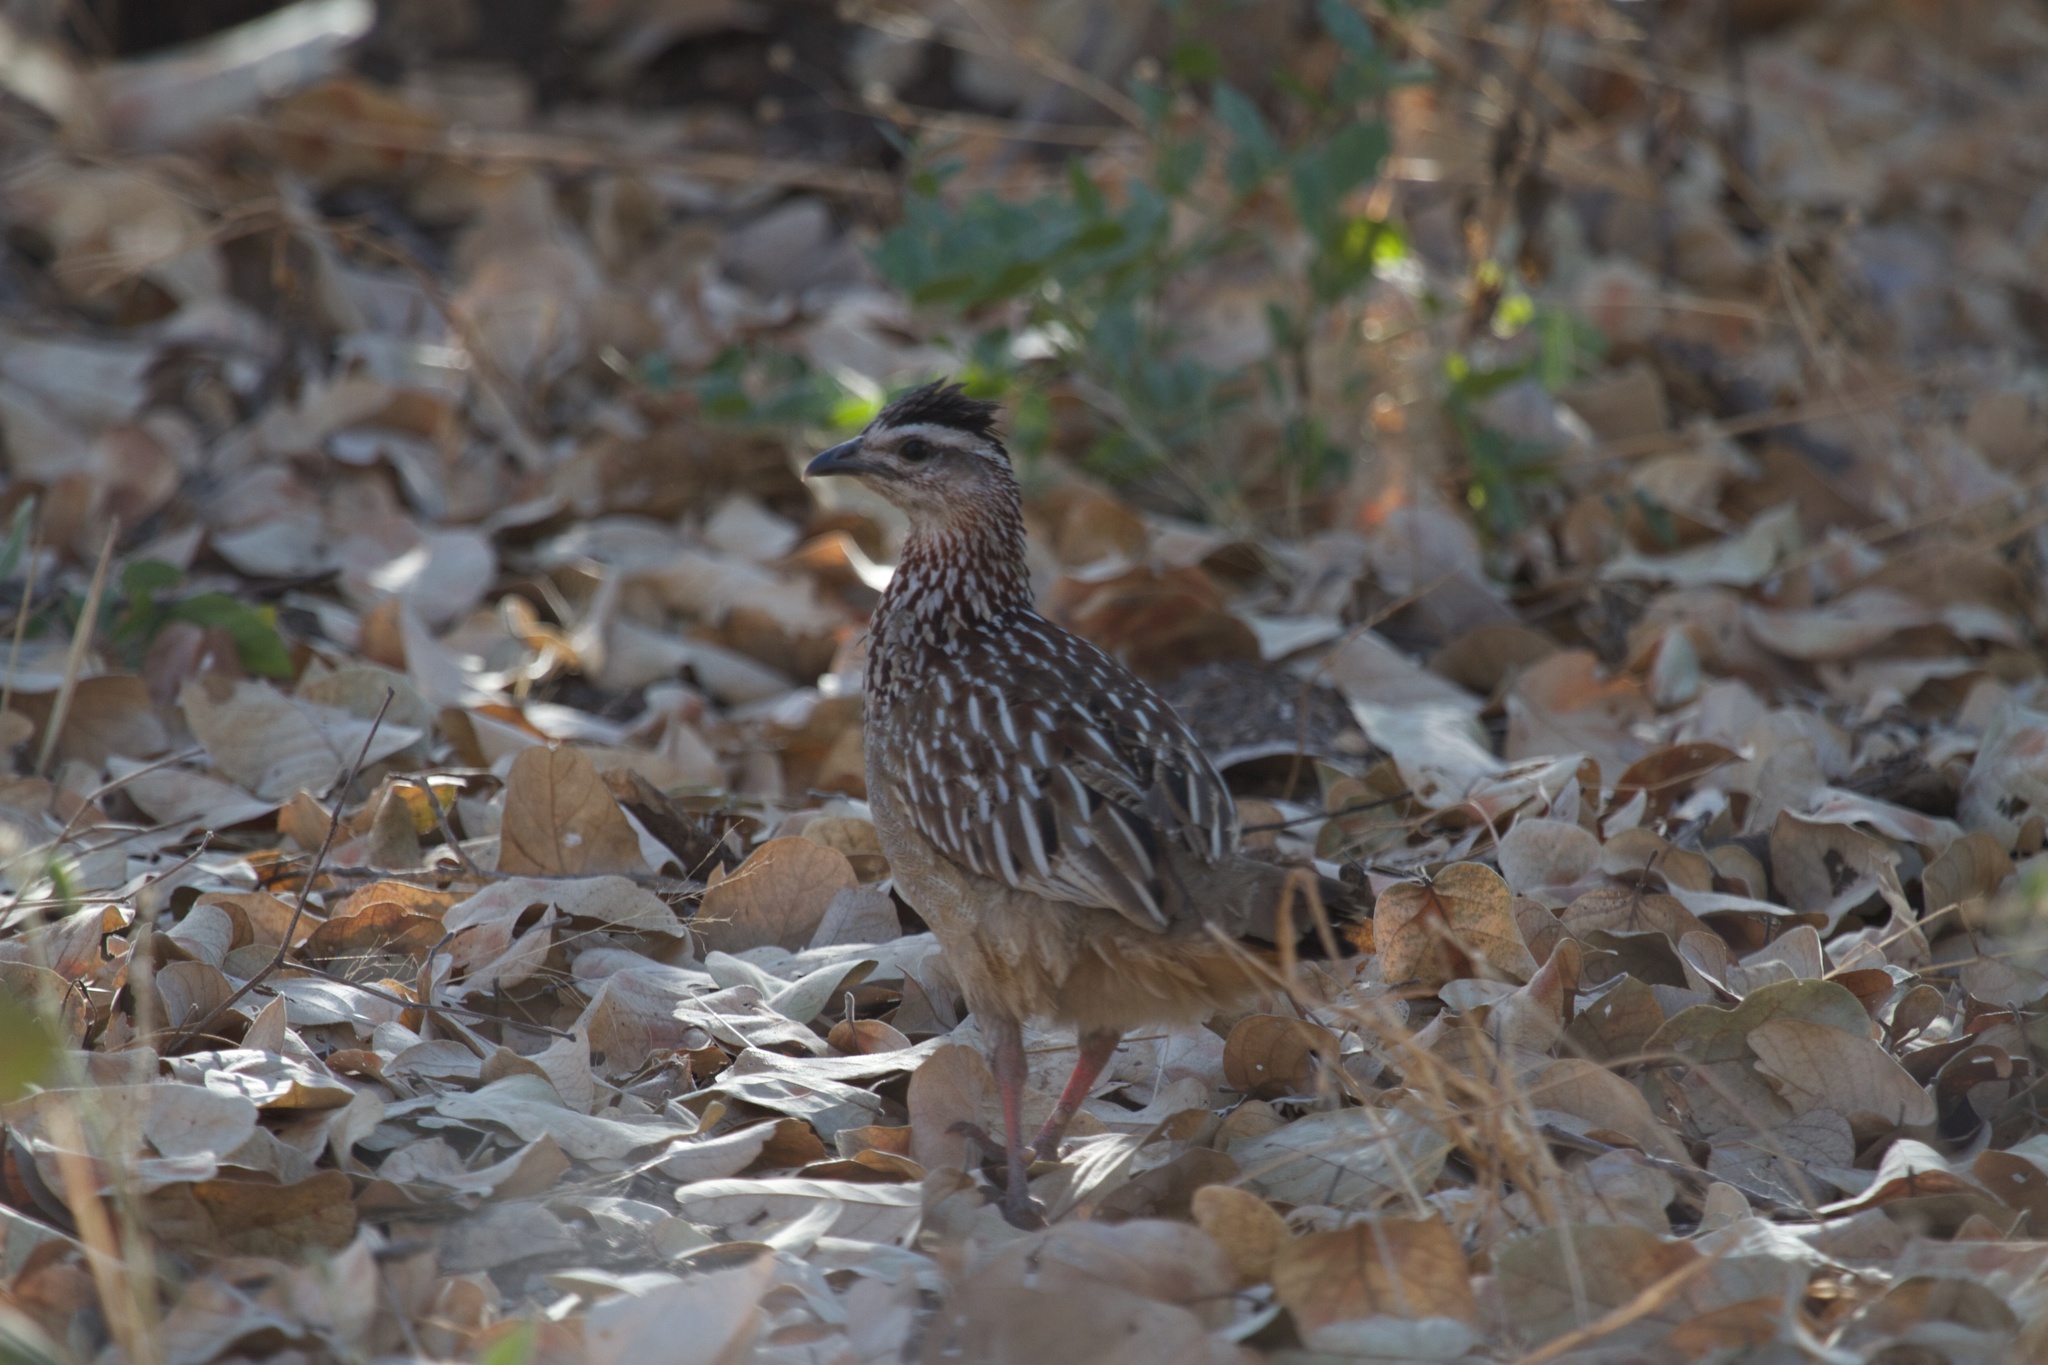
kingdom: Animalia
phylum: Chordata
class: Aves
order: Galliformes
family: Phasianidae
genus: Ortygornis
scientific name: Ortygornis sephaena
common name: Crested francolin
